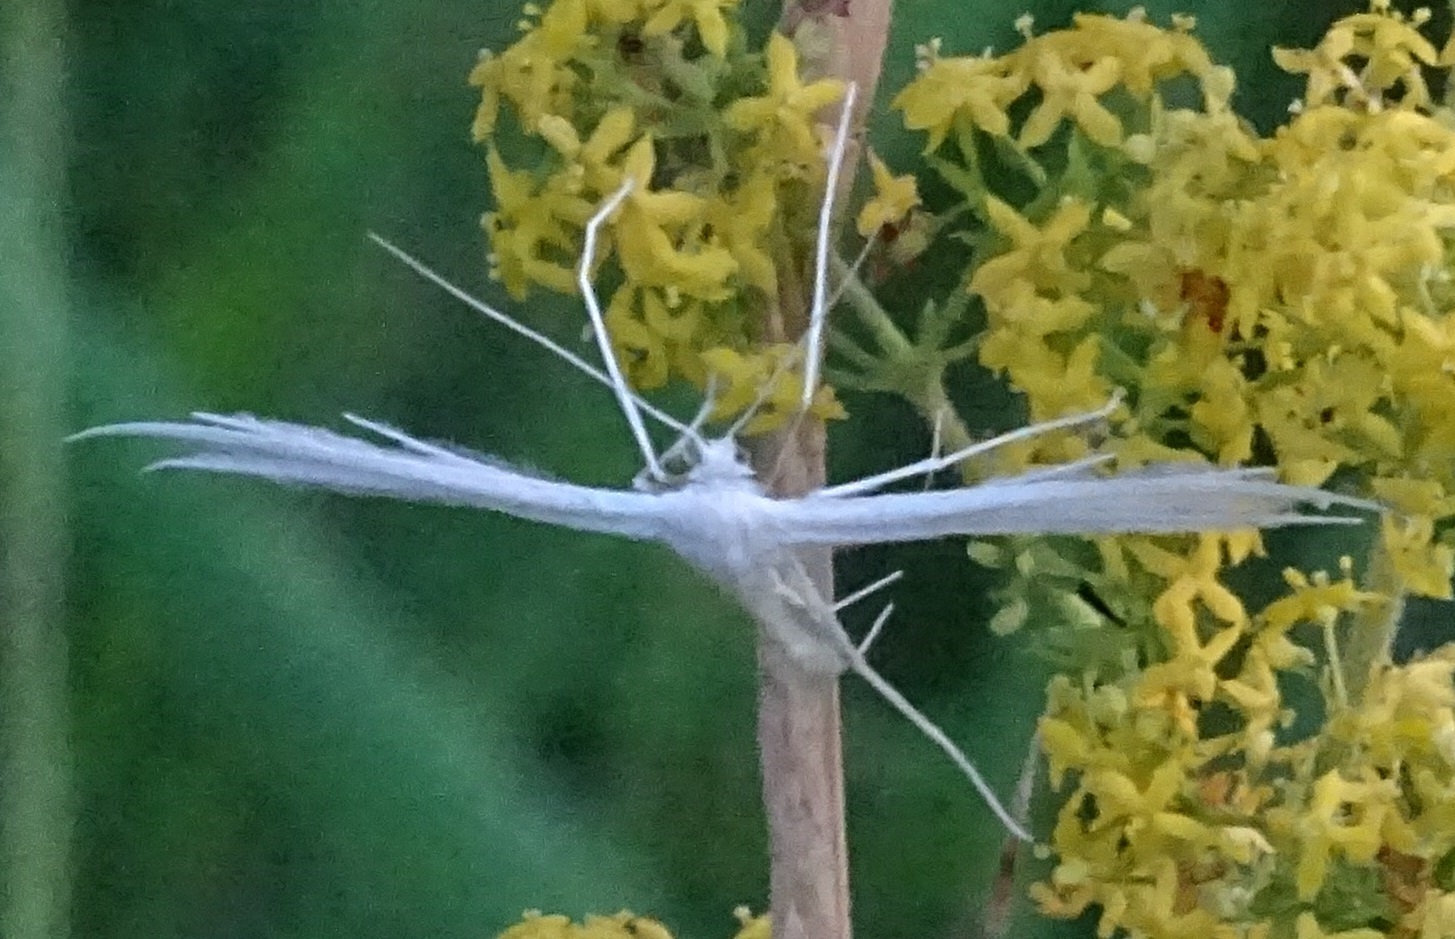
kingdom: Animalia
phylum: Arthropoda
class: Insecta
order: Lepidoptera
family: Pterophoridae
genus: Pterophorus
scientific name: Pterophorus pentadactyla
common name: White plume moth
